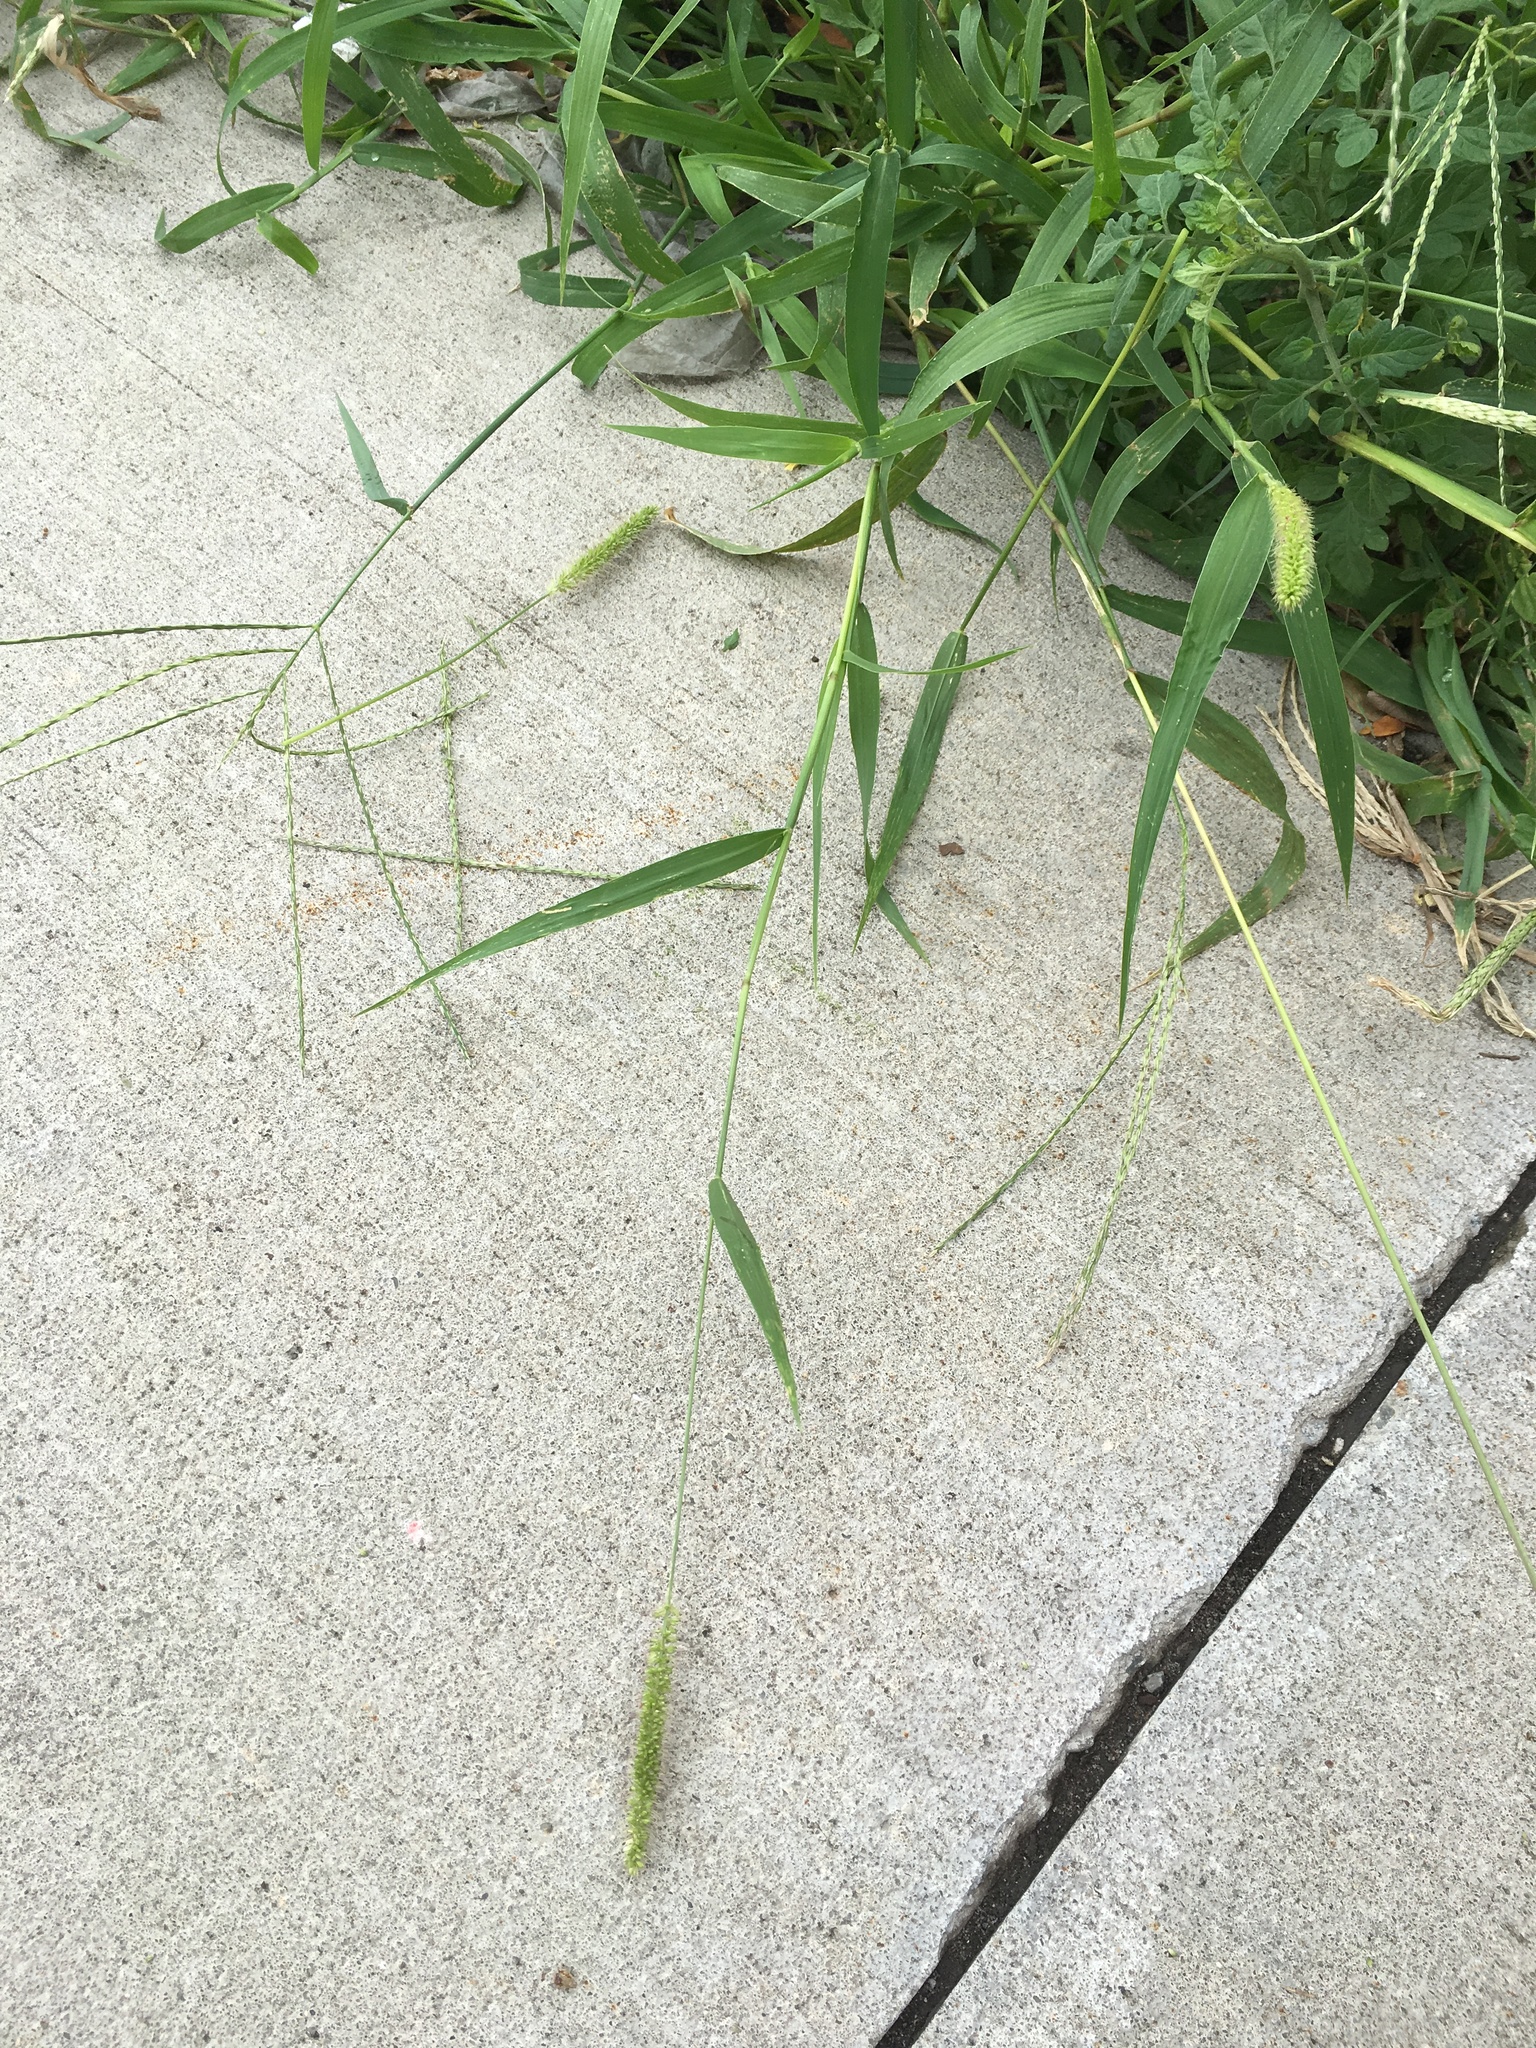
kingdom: Plantae
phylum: Tracheophyta
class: Liliopsida
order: Poales
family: Poaceae
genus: Setaria
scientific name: Setaria verticillata
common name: Hooked bristlegrass
